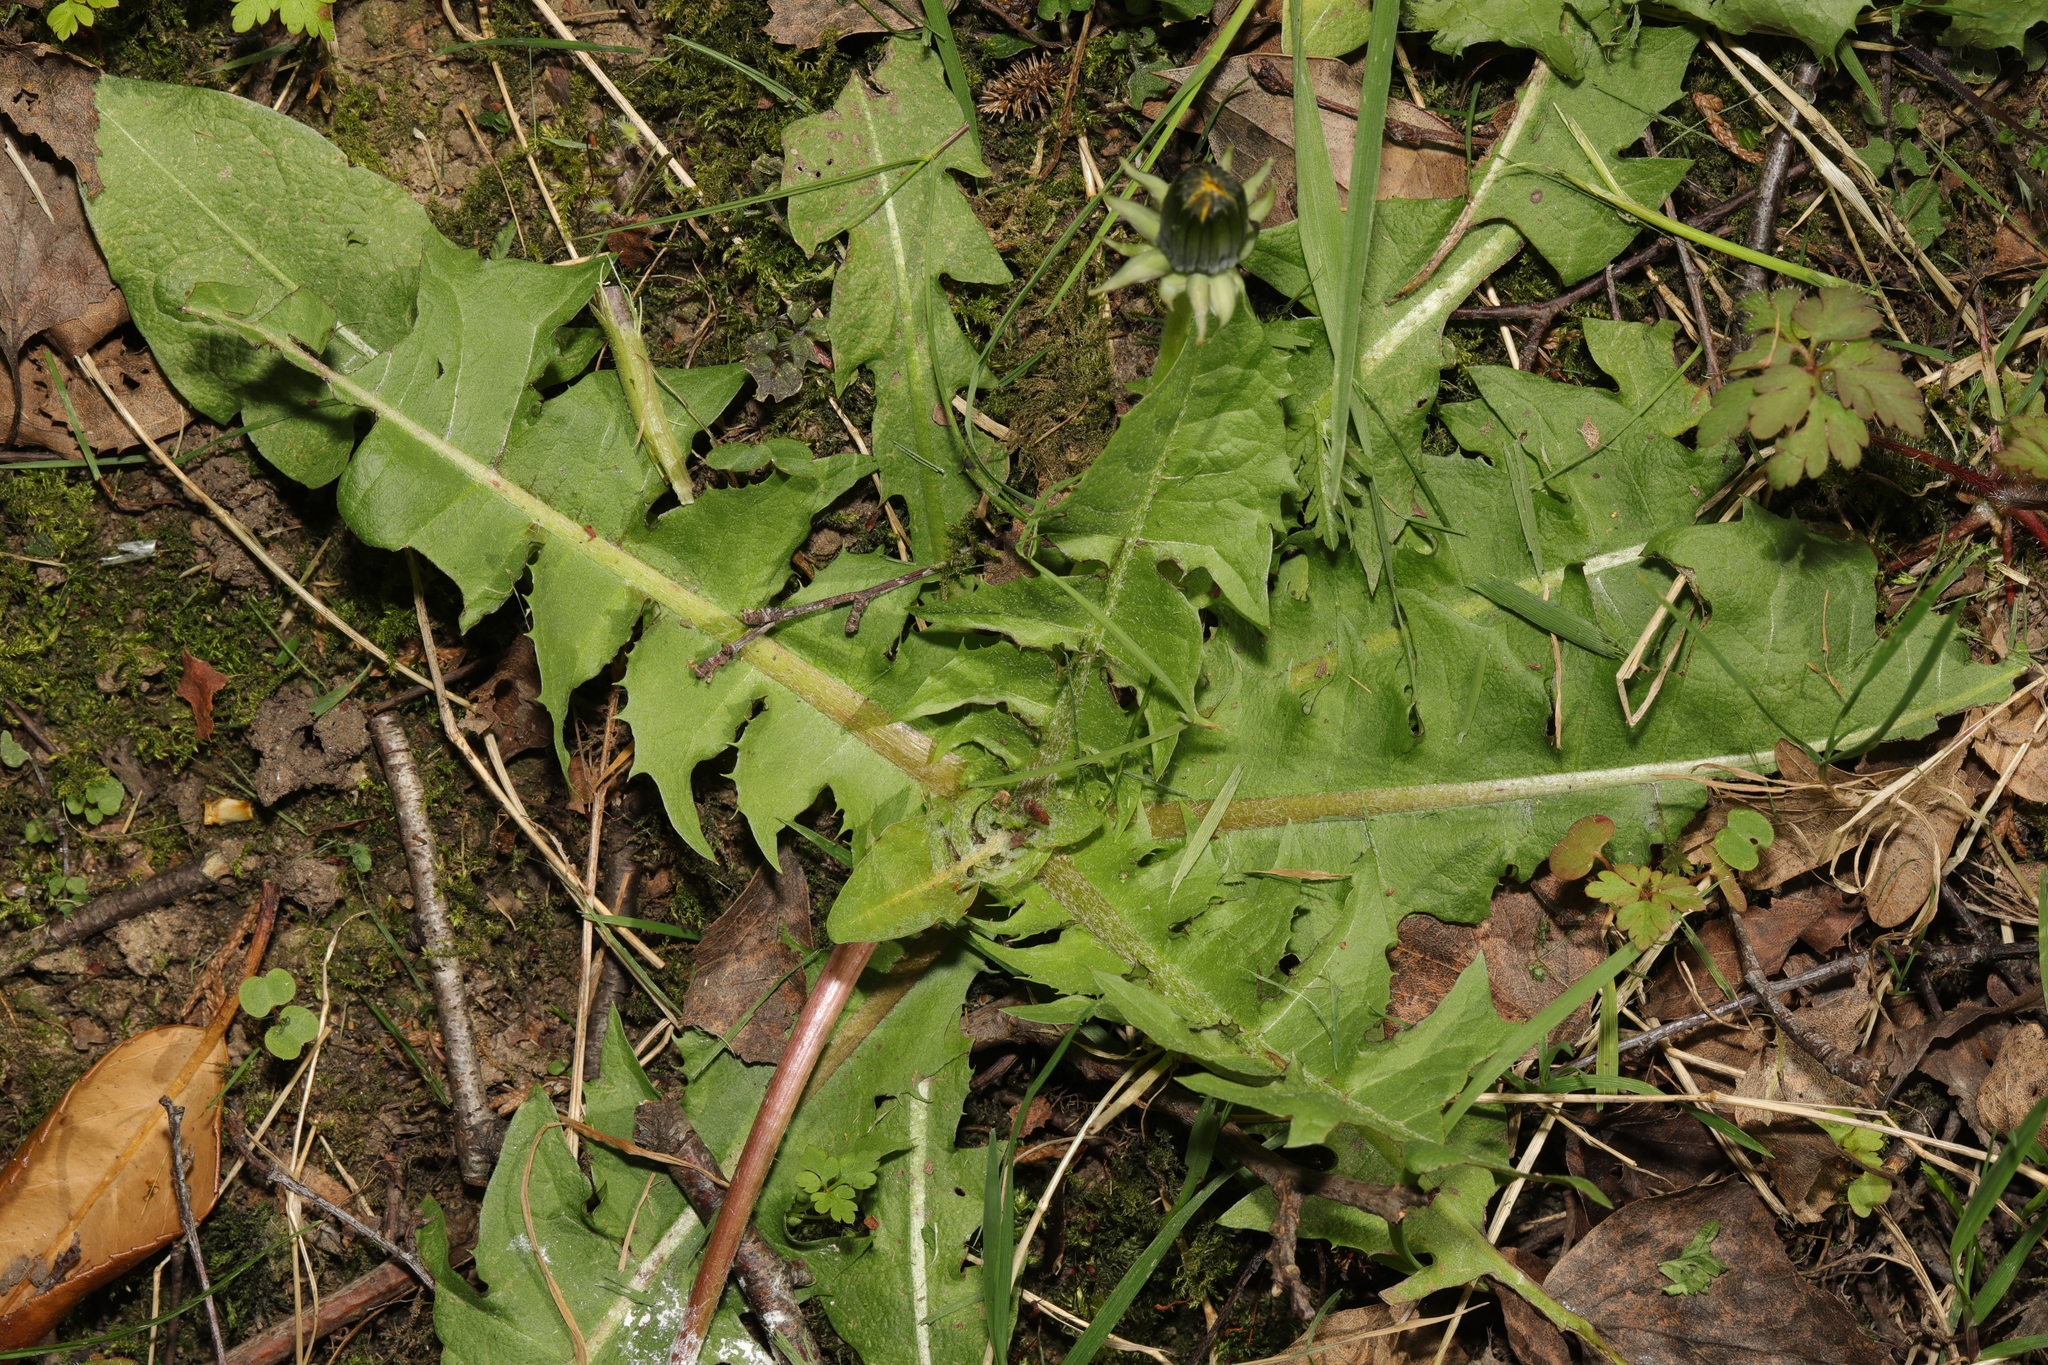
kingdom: Plantae
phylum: Tracheophyta
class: Magnoliopsida
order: Asterales
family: Asteraceae
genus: Taraxacum
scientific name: Taraxacum officinale
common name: Common dandelion
